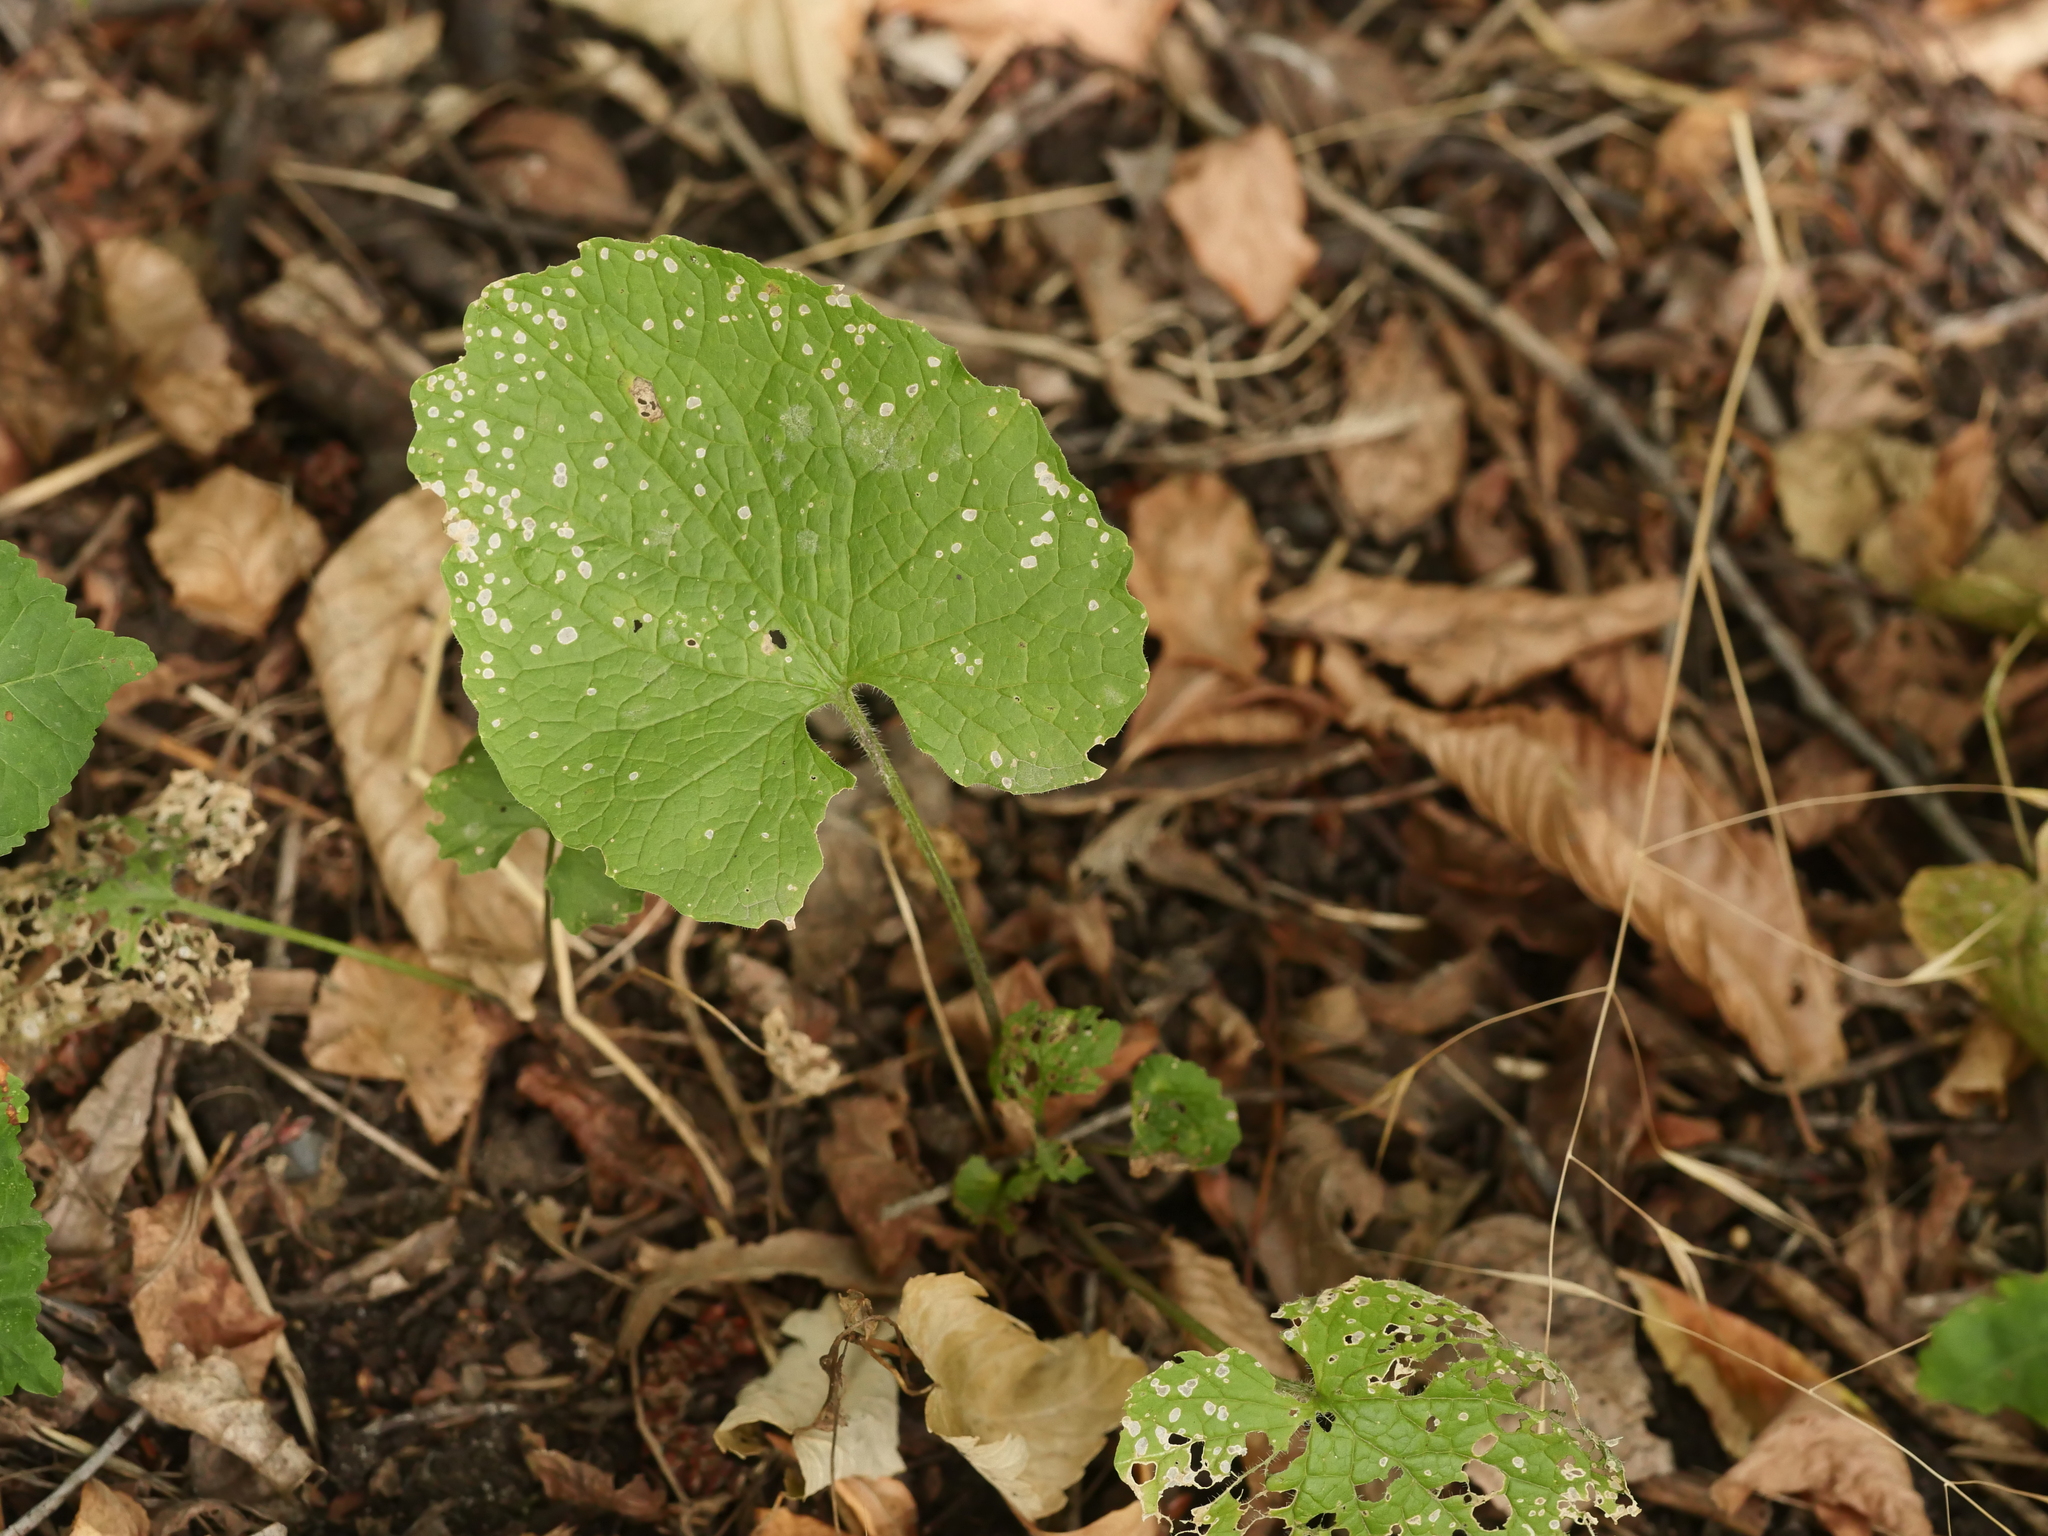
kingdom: Plantae
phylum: Tracheophyta
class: Magnoliopsida
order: Brassicales
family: Brassicaceae
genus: Alliaria
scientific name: Alliaria petiolata
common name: Garlic mustard
